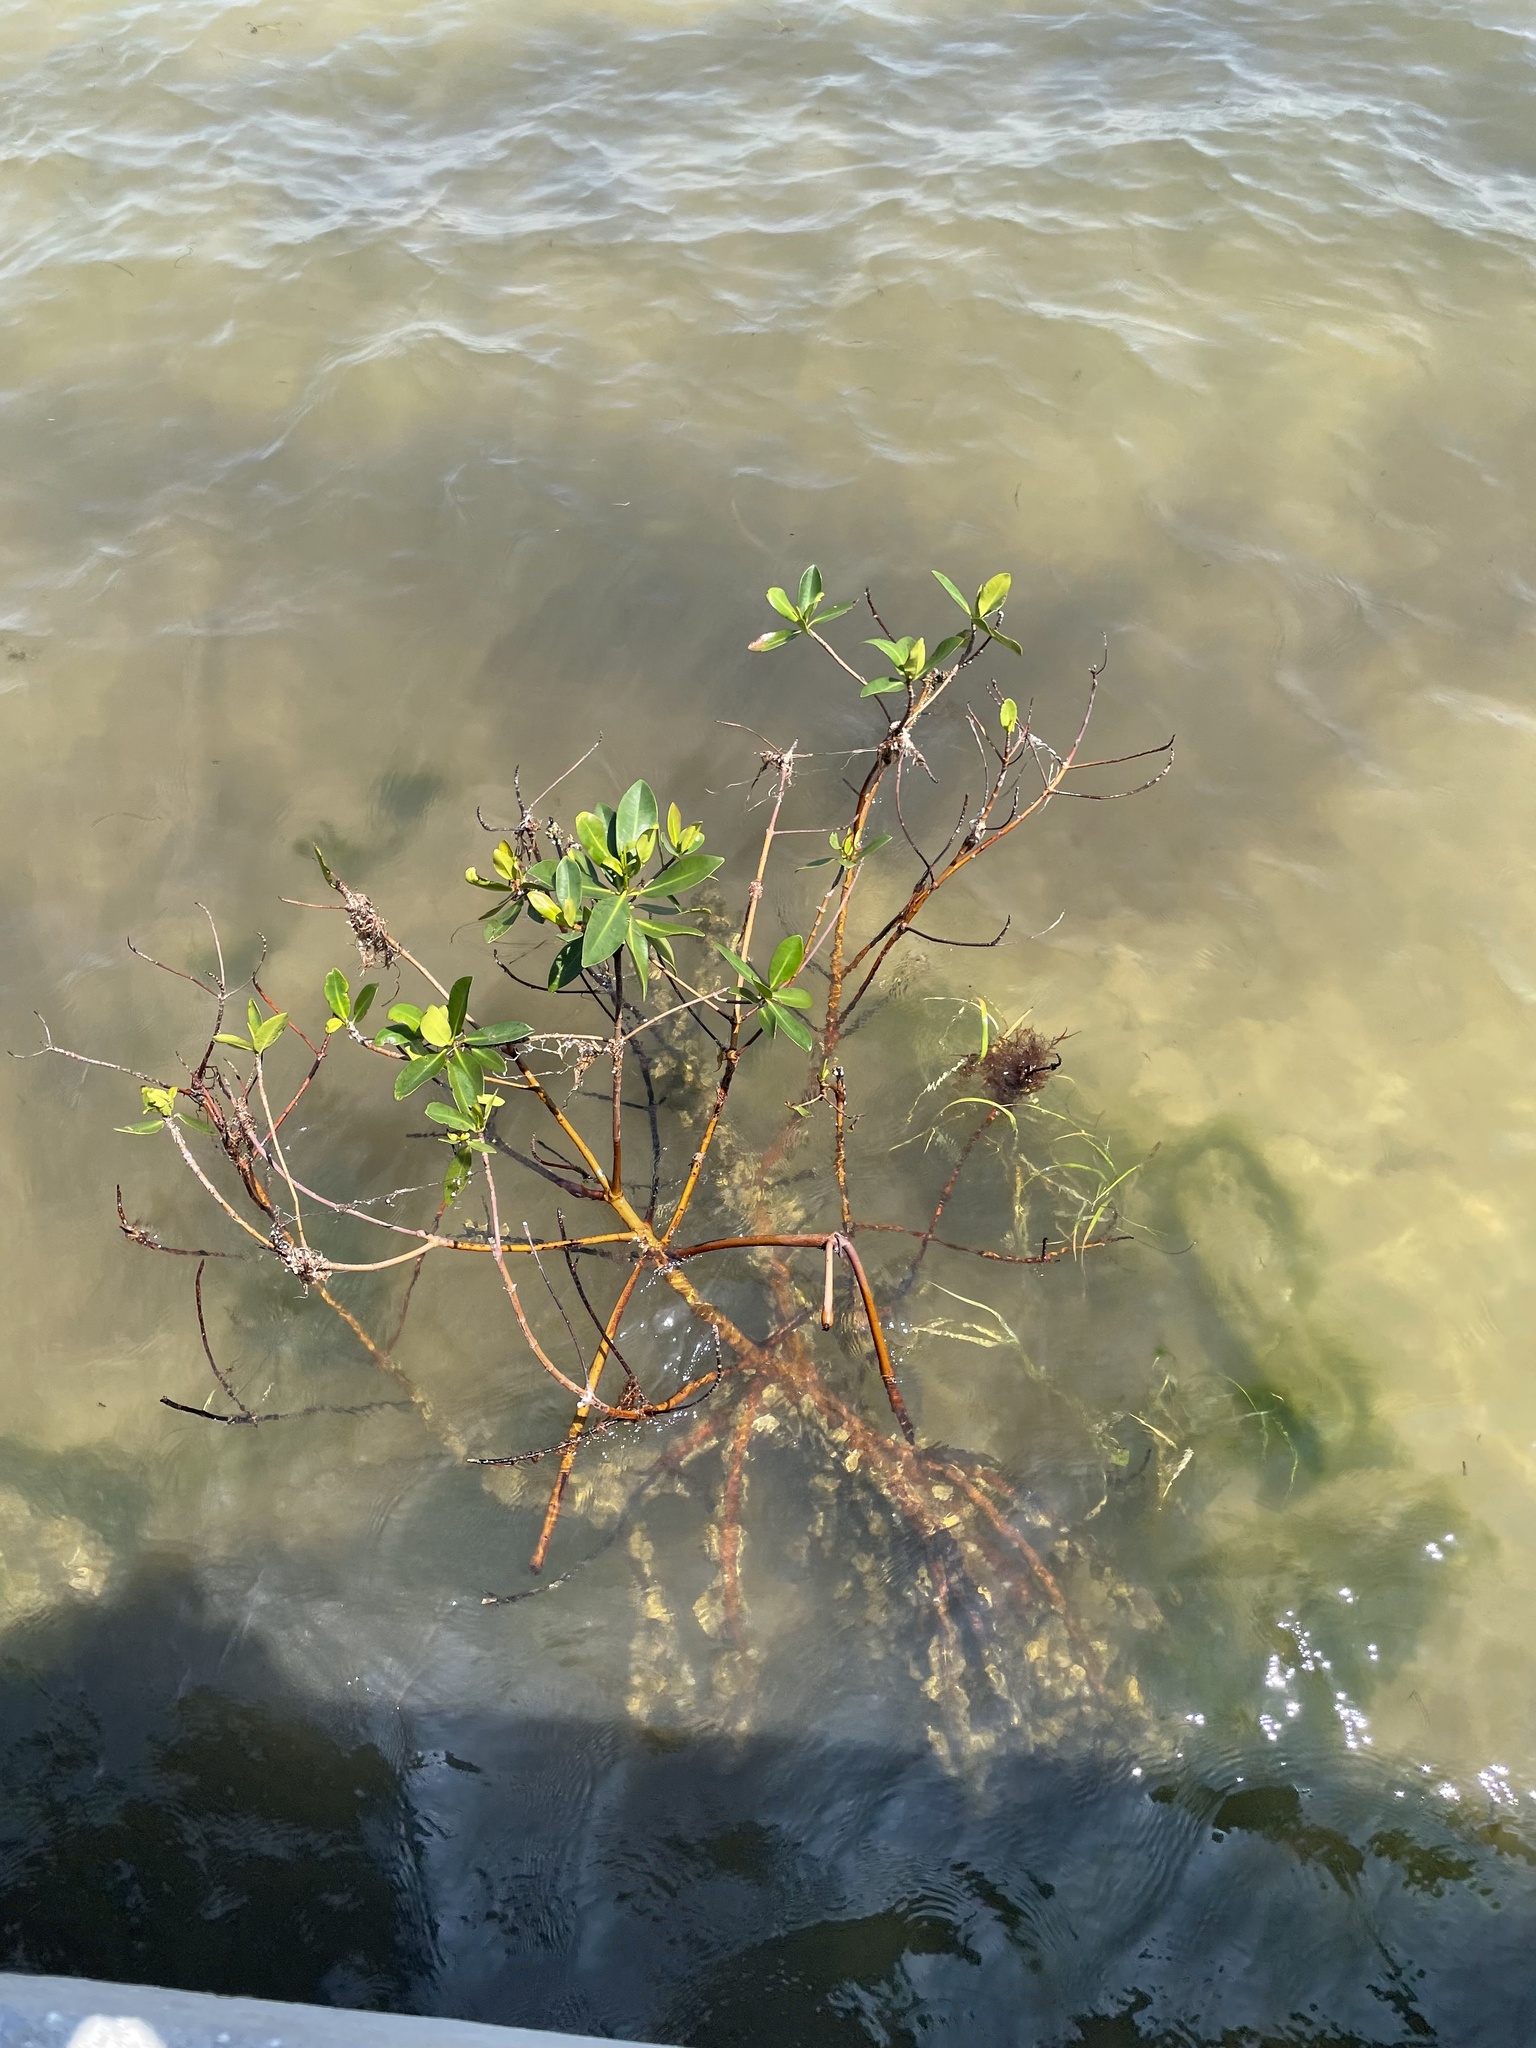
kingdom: Plantae
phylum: Tracheophyta
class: Magnoliopsida
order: Malpighiales
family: Rhizophoraceae
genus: Rhizophora
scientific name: Rhizophora mangle
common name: Red mangrove
